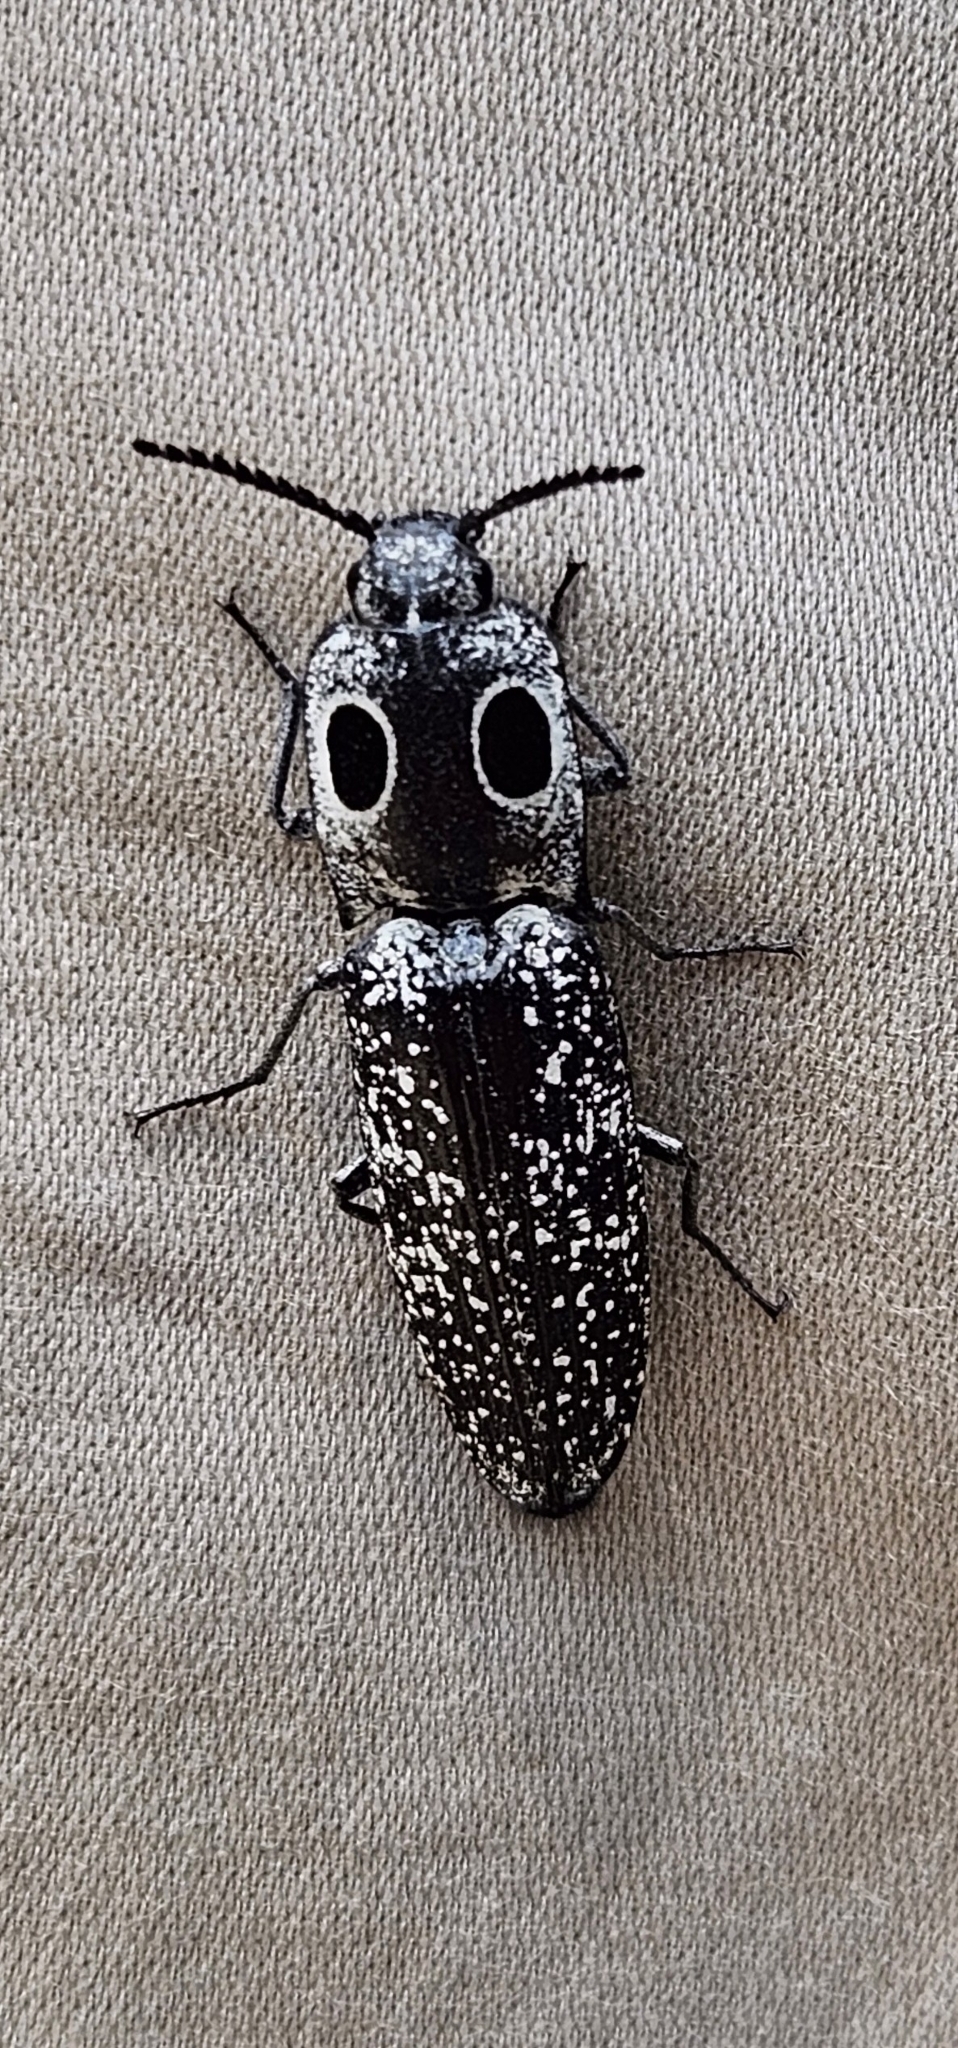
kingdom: Animalia
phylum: Arthropoda
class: Insecta
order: Coleoptera
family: Elateridae
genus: Alaus
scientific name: Alaus oculatus
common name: Eastern eyed click beetle
